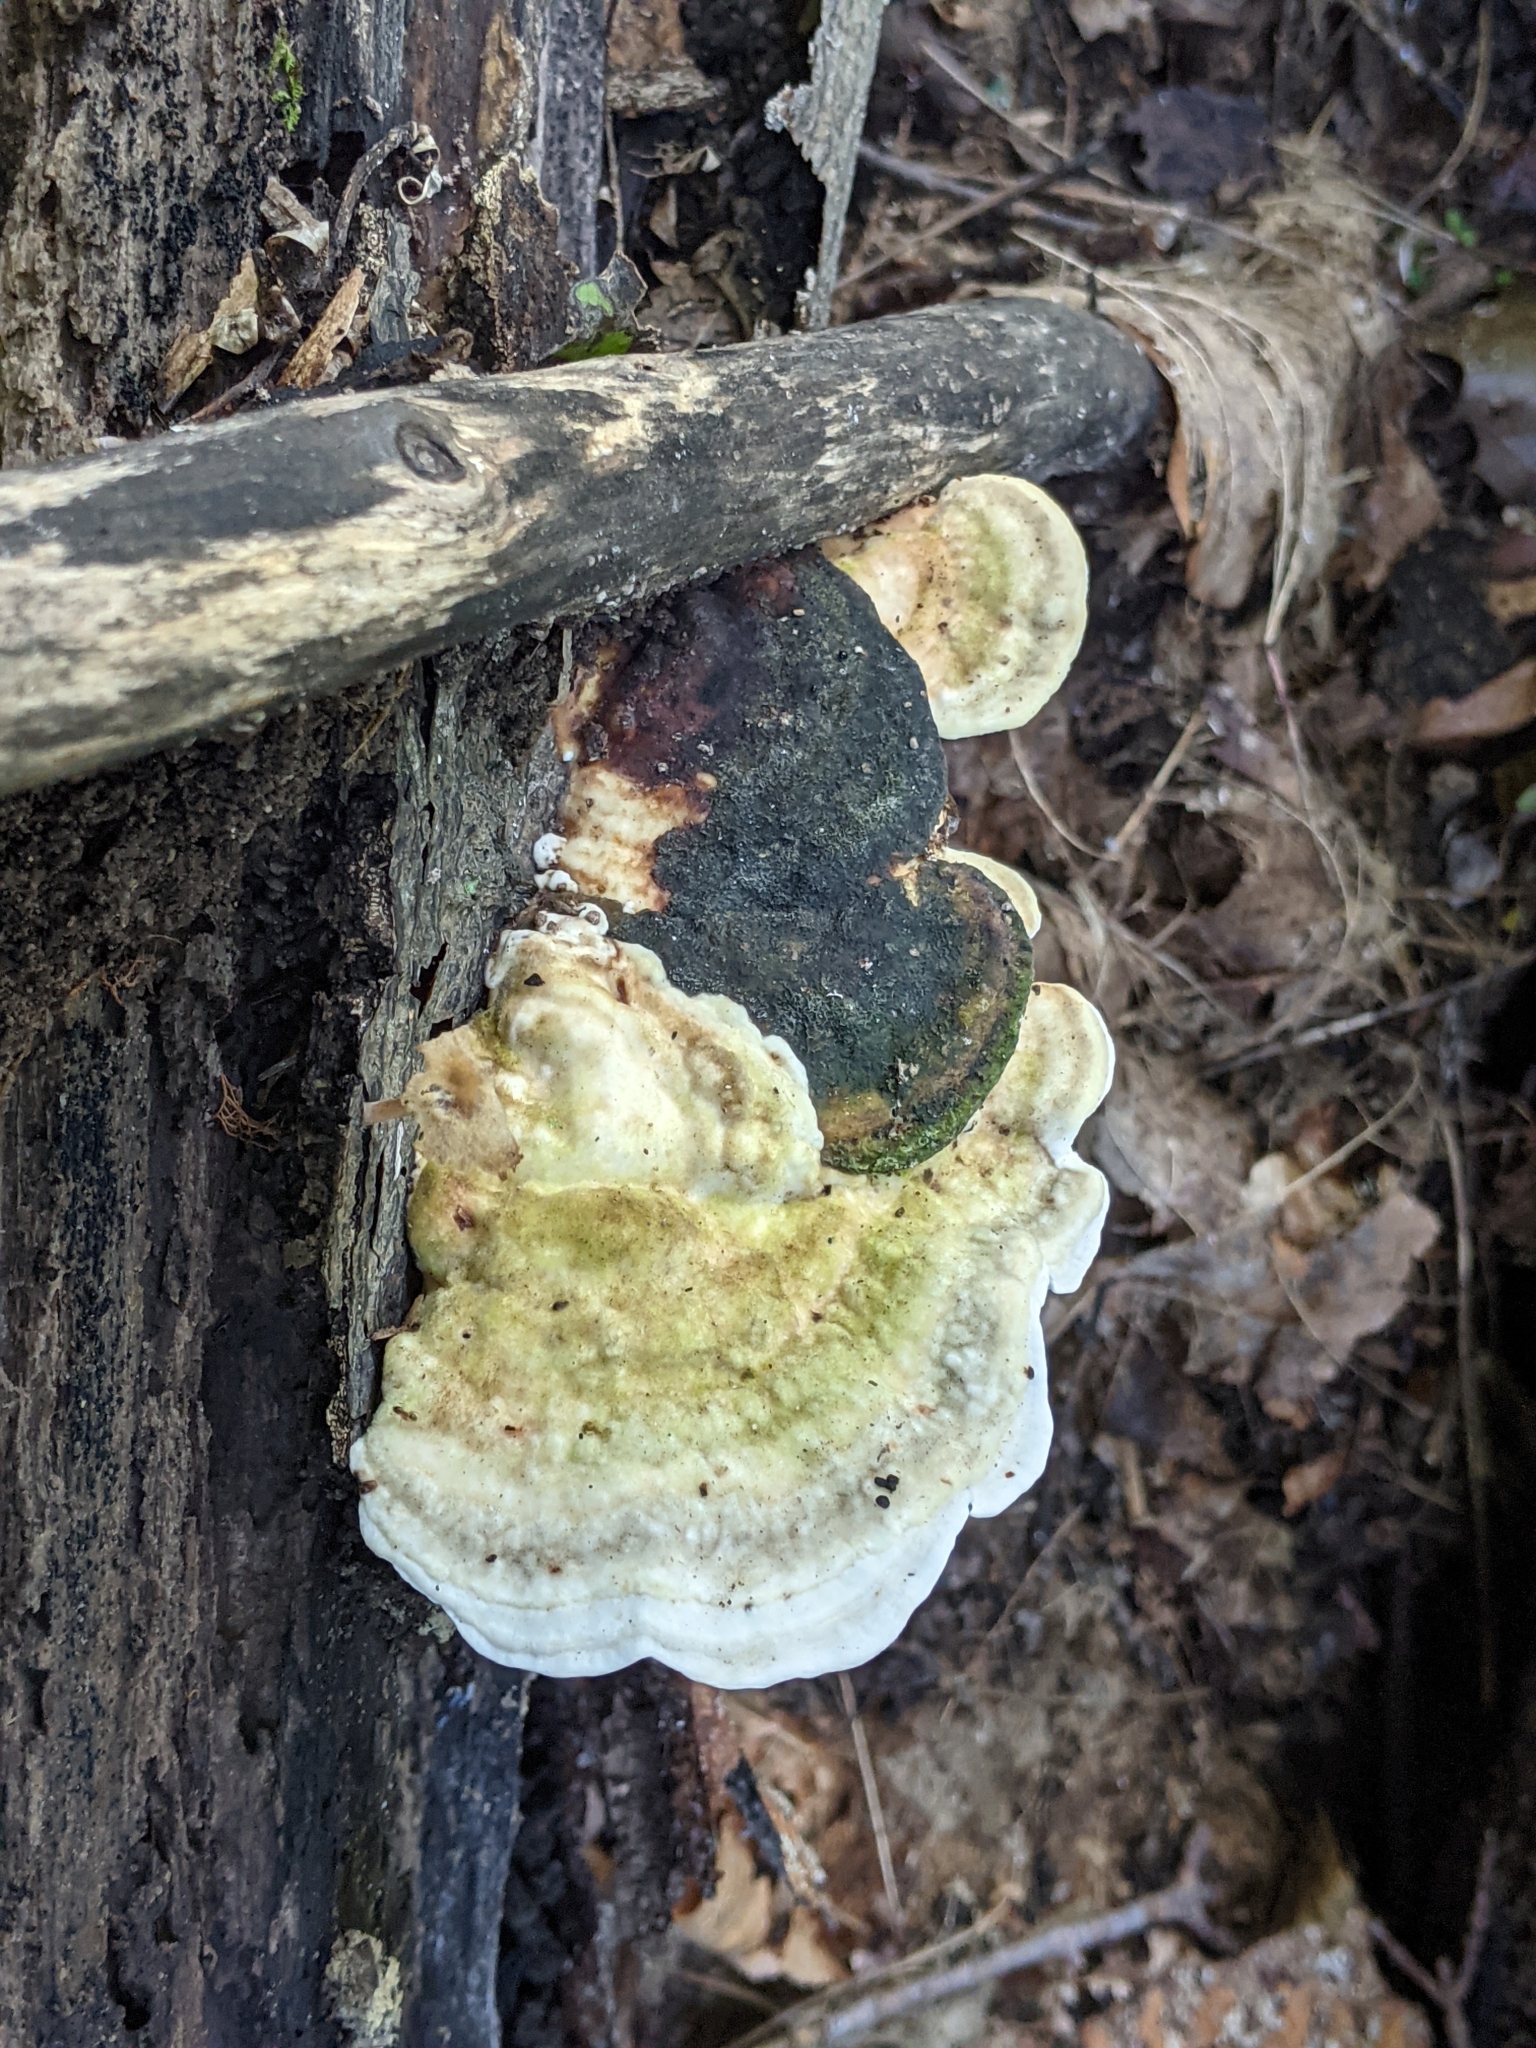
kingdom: Fungi
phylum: Basidiomycota
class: Agaricomycetes
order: Polyporales
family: Polyporaceae
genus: Trametes
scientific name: Trametes gibbosa
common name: Lumpy bracket
